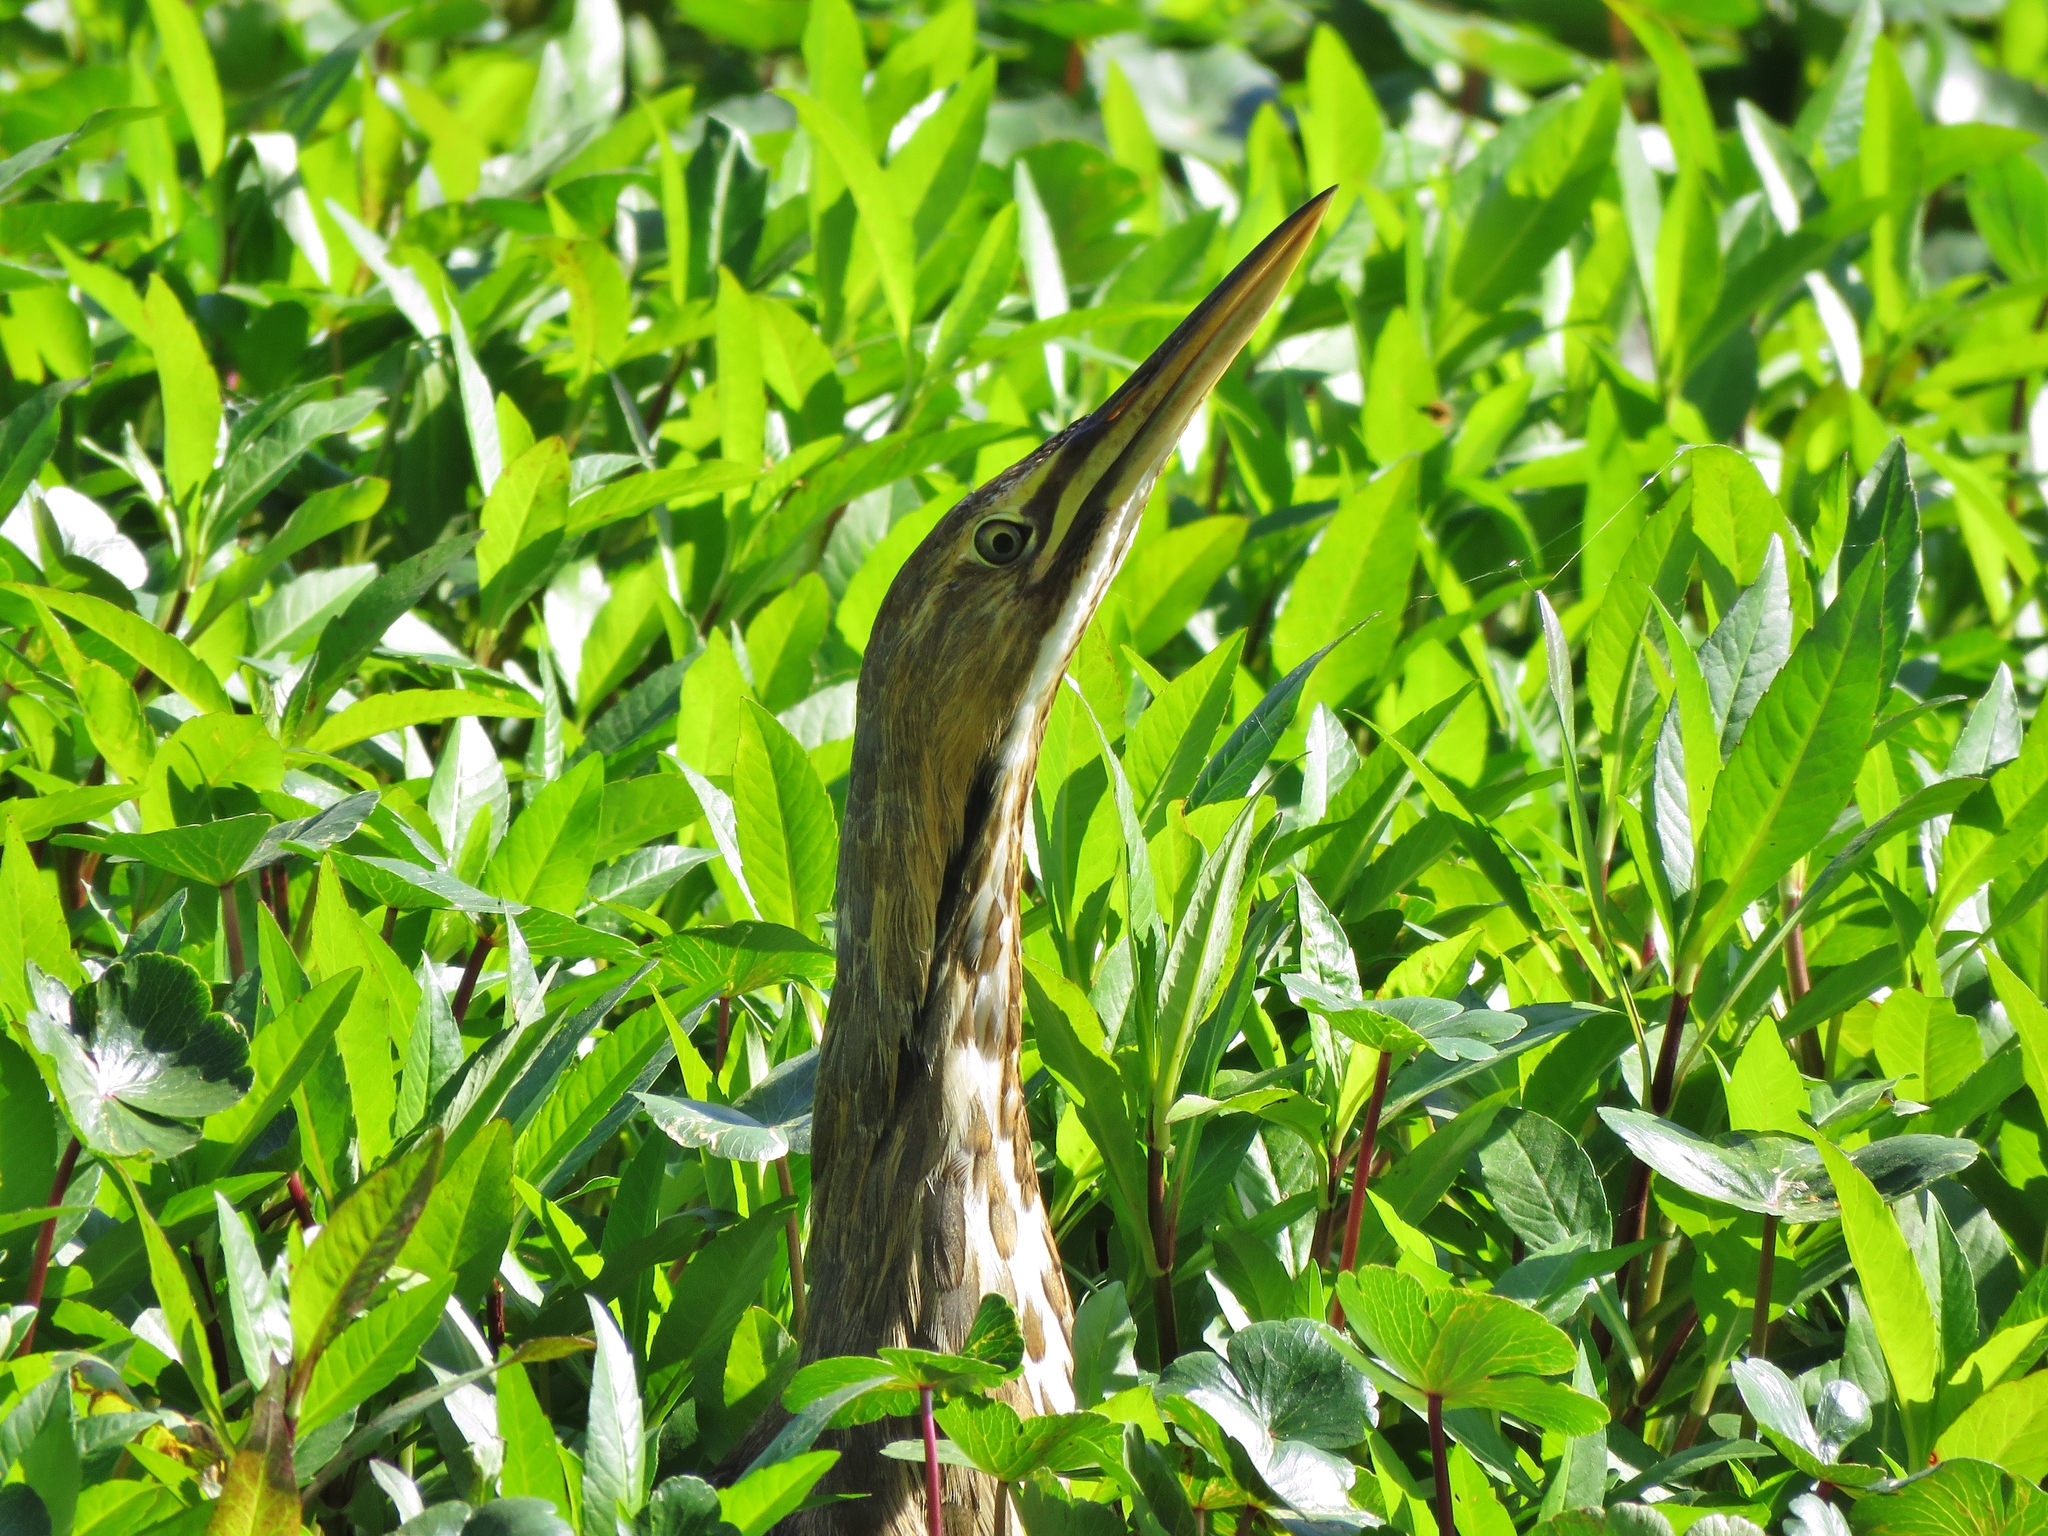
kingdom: Animalia
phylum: Chordata
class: Aves
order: Pelecaniformes
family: Ardeidae
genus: Botaurus
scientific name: Botaurus lentiginosus
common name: American bittern
